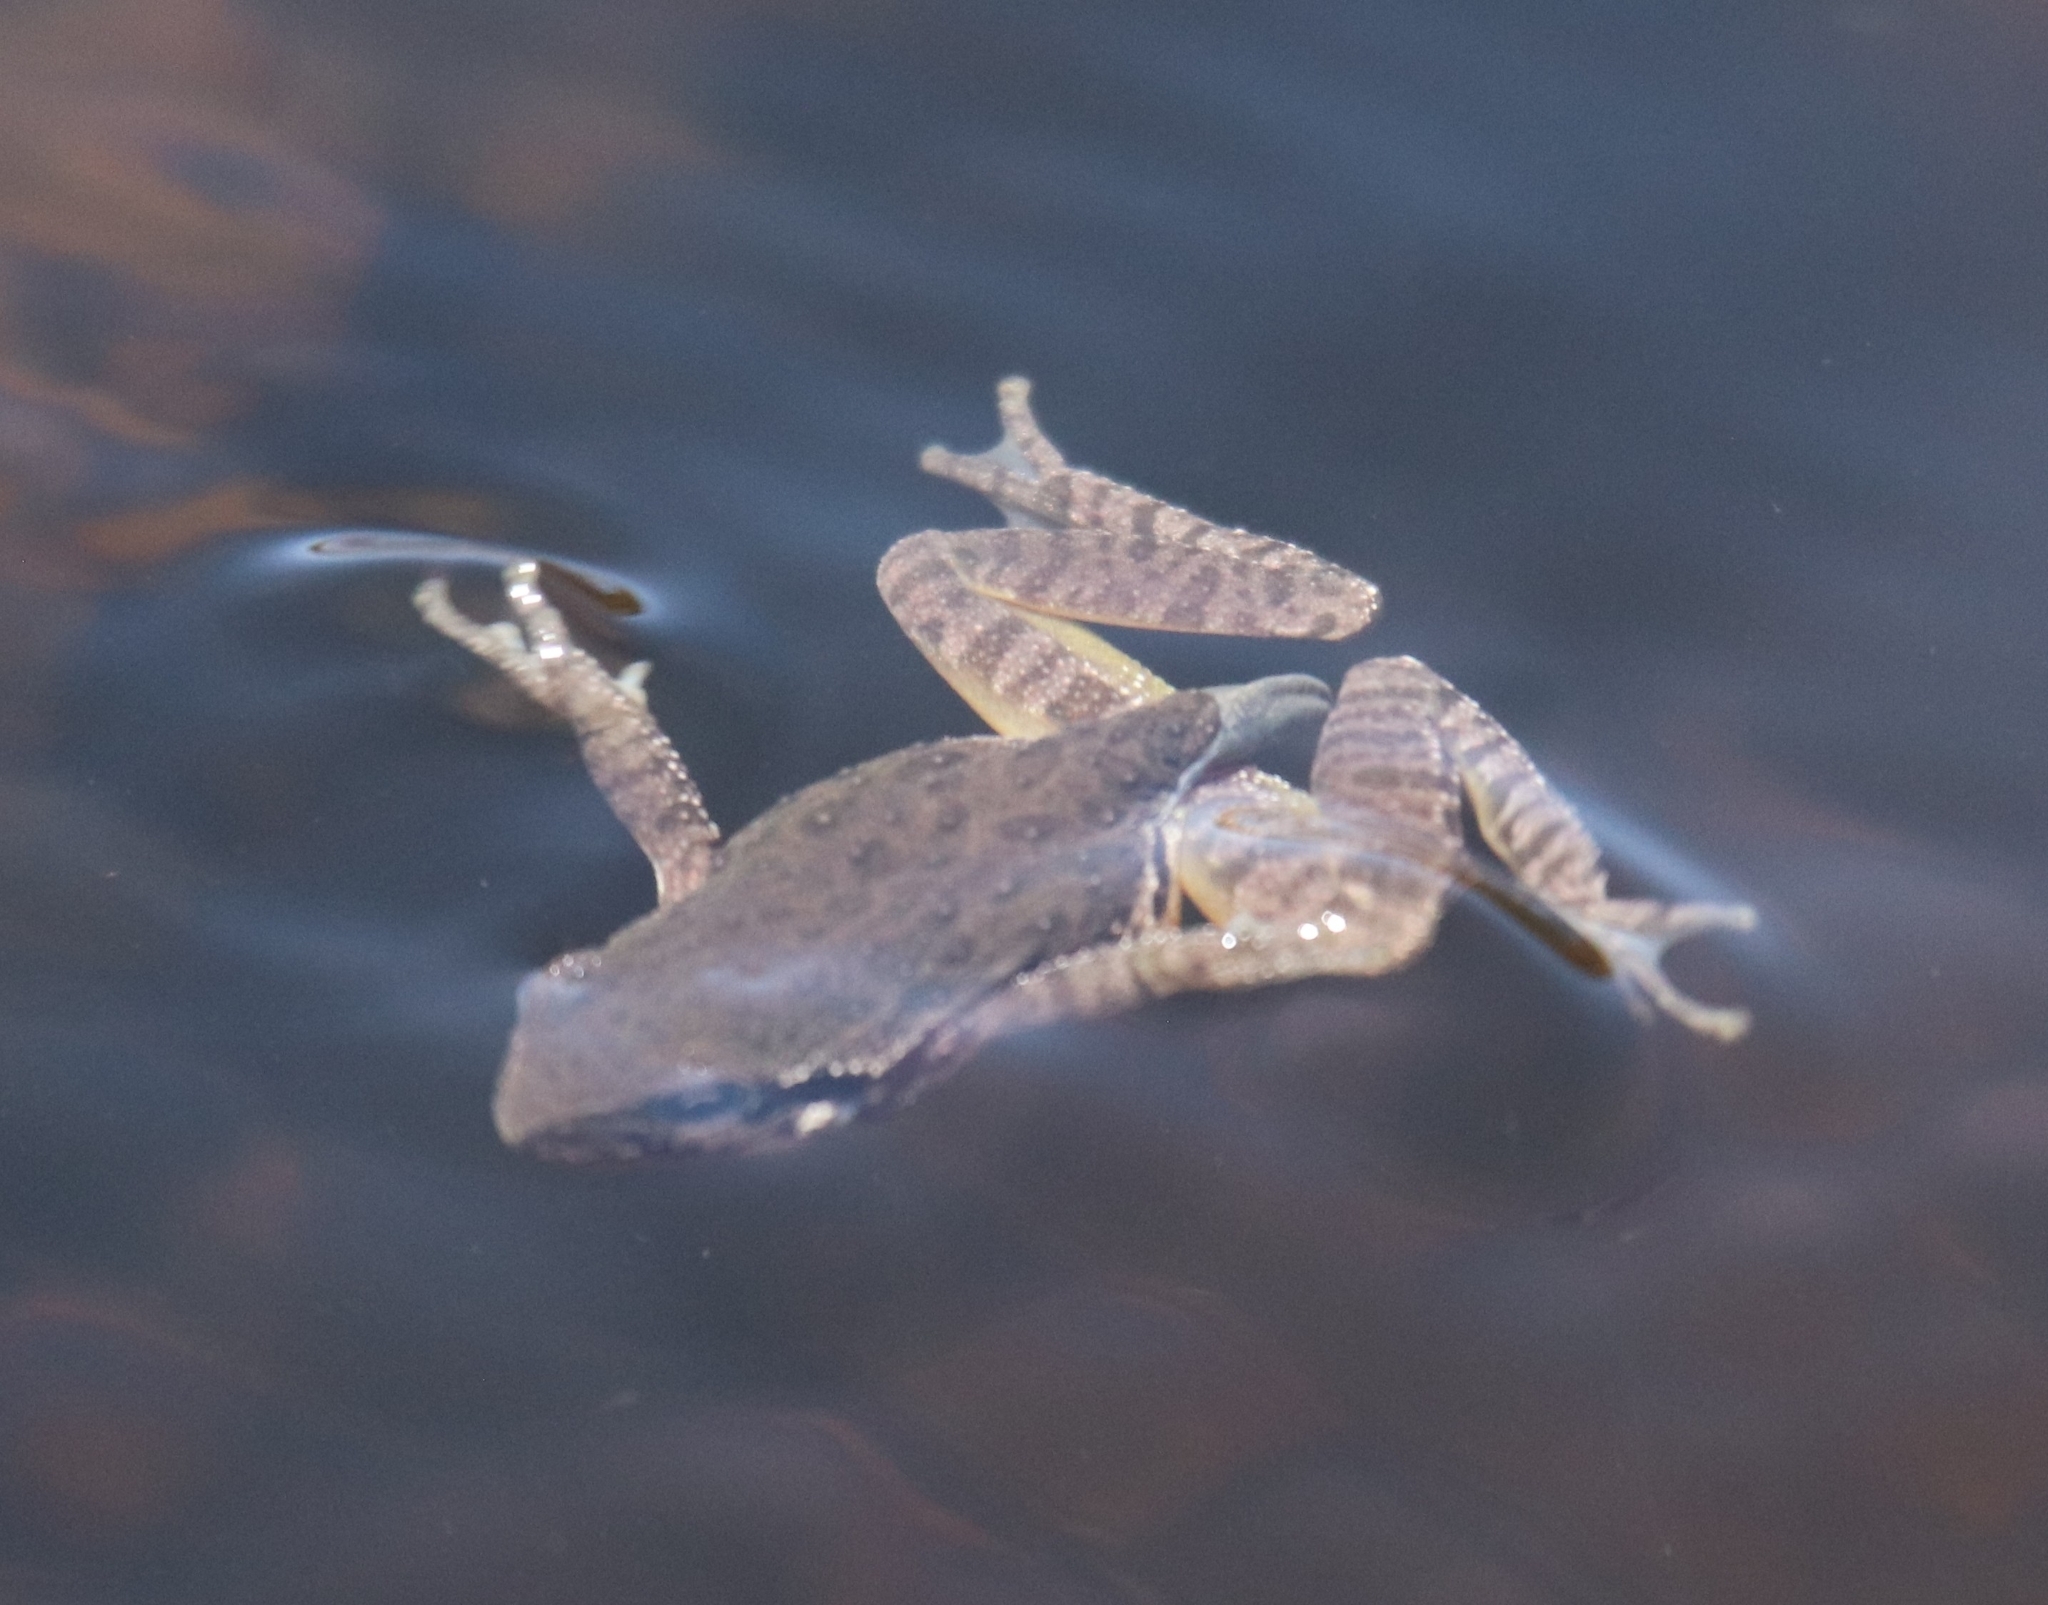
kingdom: Animalia
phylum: Chordata
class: Amphibia
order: Anura
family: Hylidae
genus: Pseudacris
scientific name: Pseudacris regilla
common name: Pacific chorus frog
